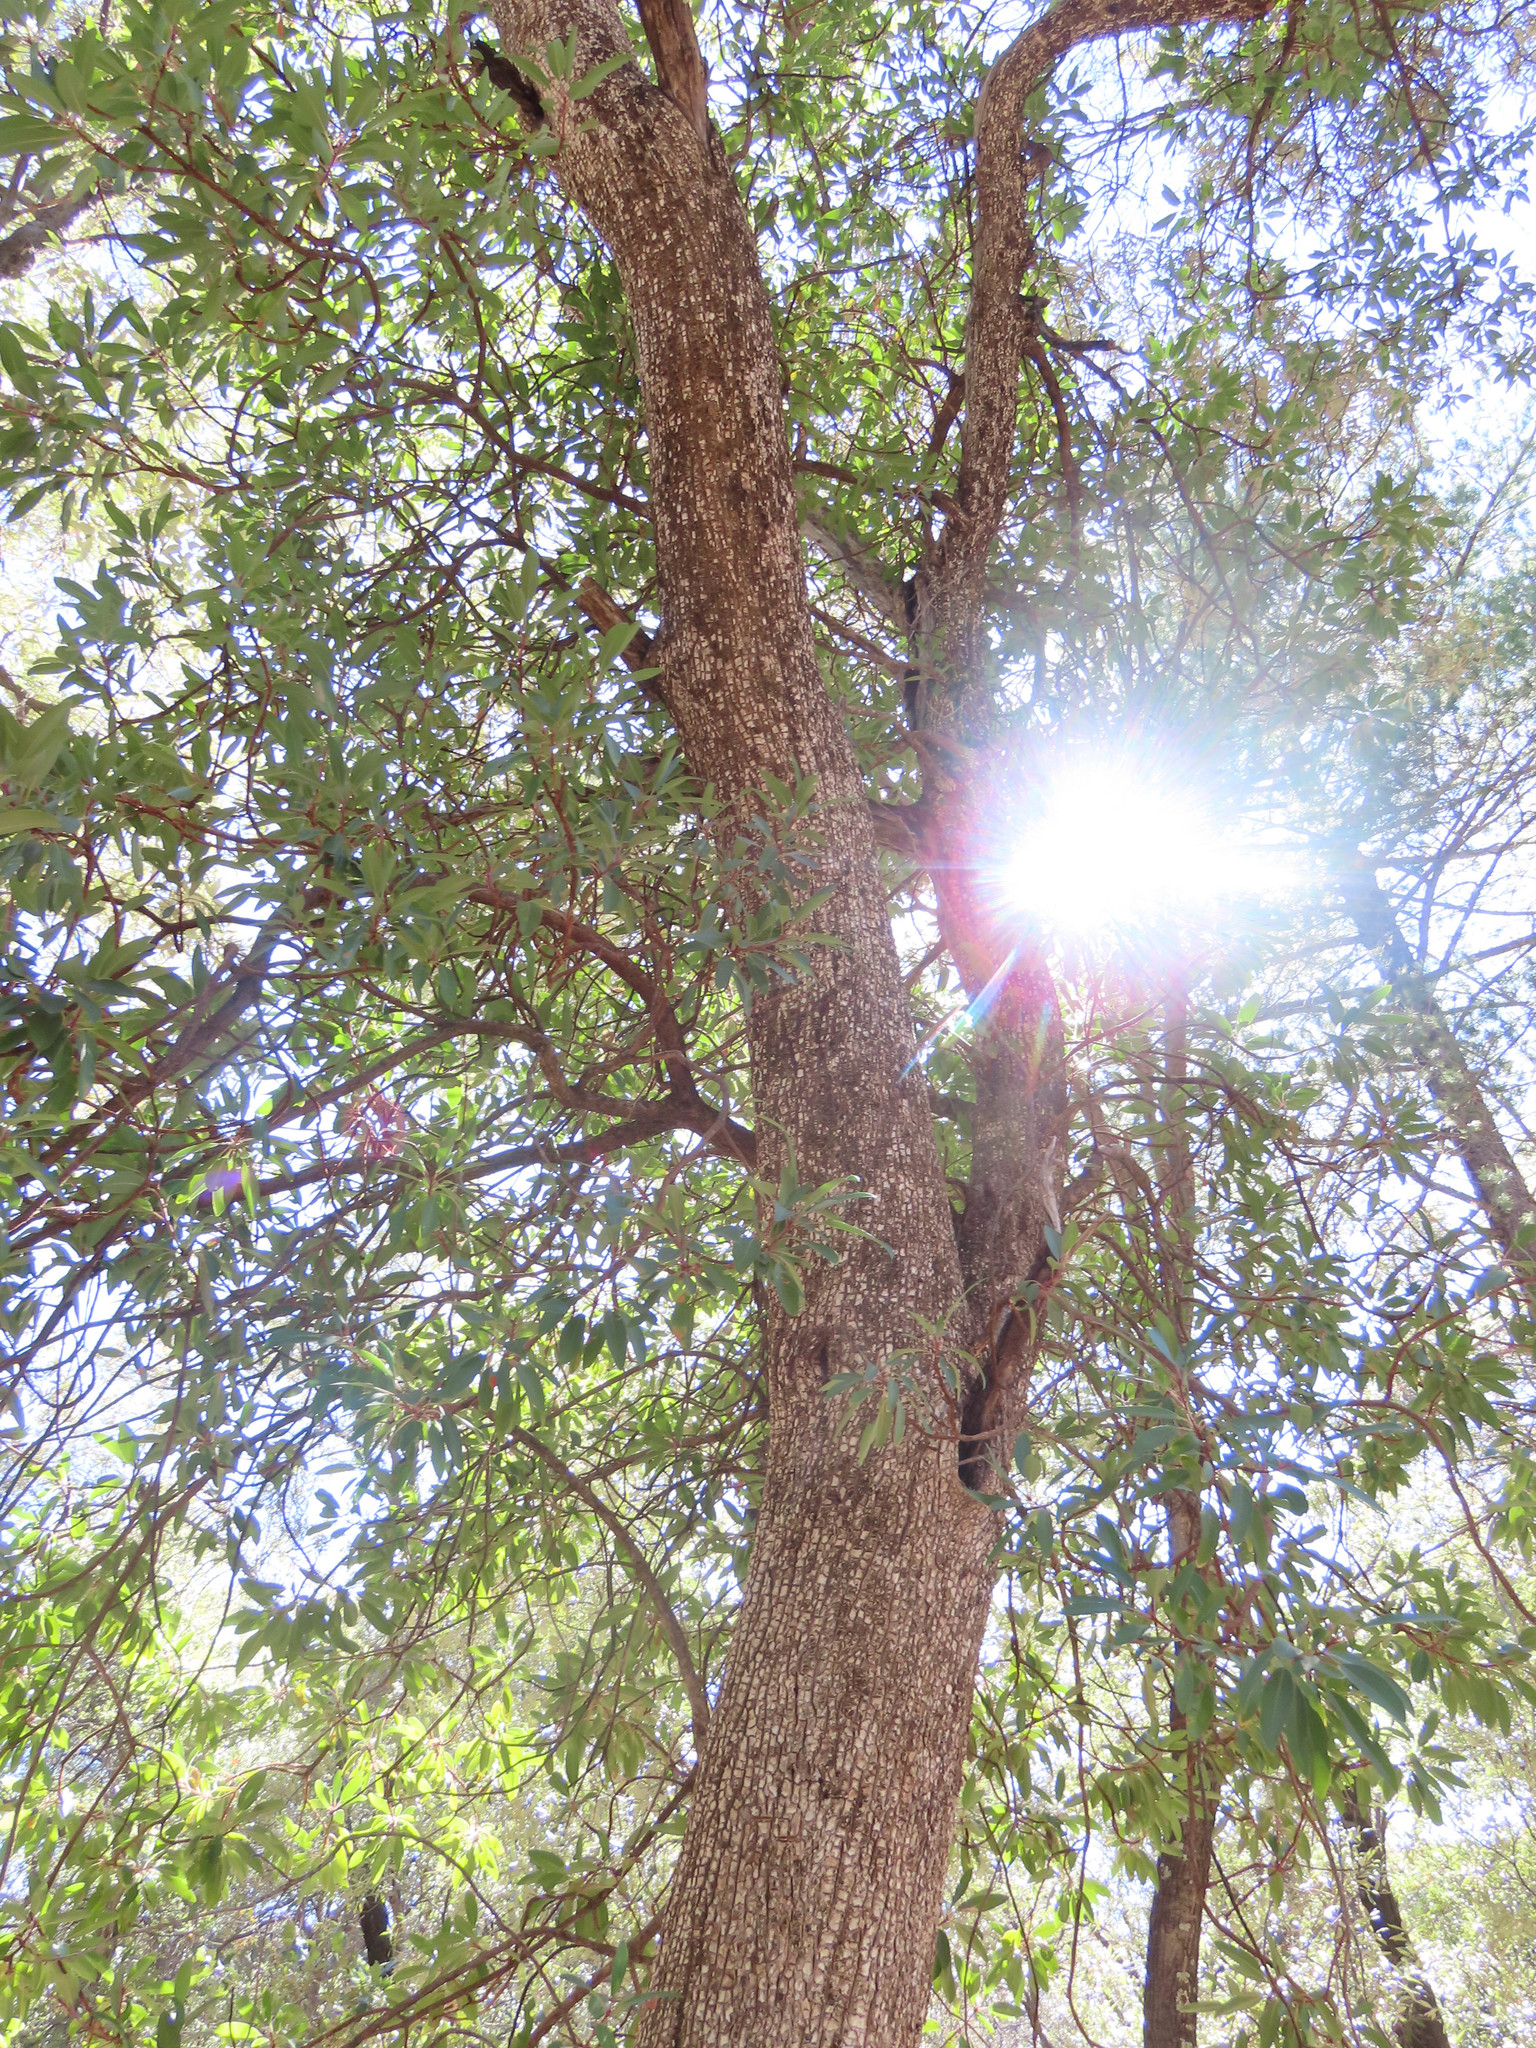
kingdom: Plantae
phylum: Tracheophyta
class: Magnoliopsida
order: Ericales
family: Ericaceae
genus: Arbutus
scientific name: Arbutus arizonica
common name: Arizona madrone
